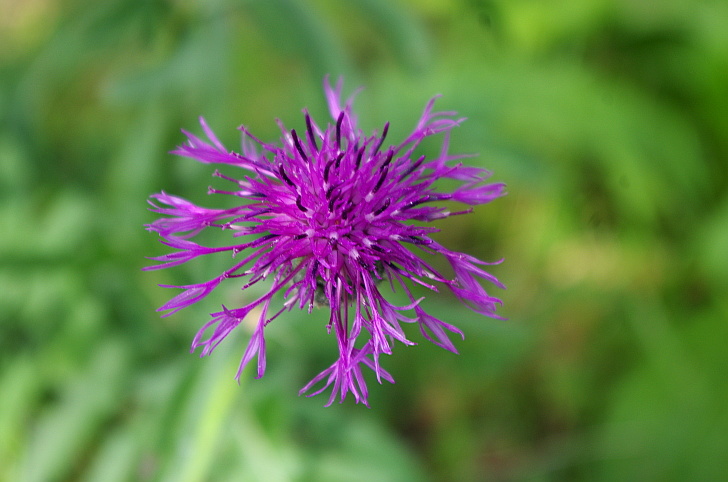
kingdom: Plantae
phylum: Tracheophyta
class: Magnoliopsida
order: Asterales
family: Asteraceae
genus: Centaurea
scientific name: Centaurea scabiosa
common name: Greater knapweed
